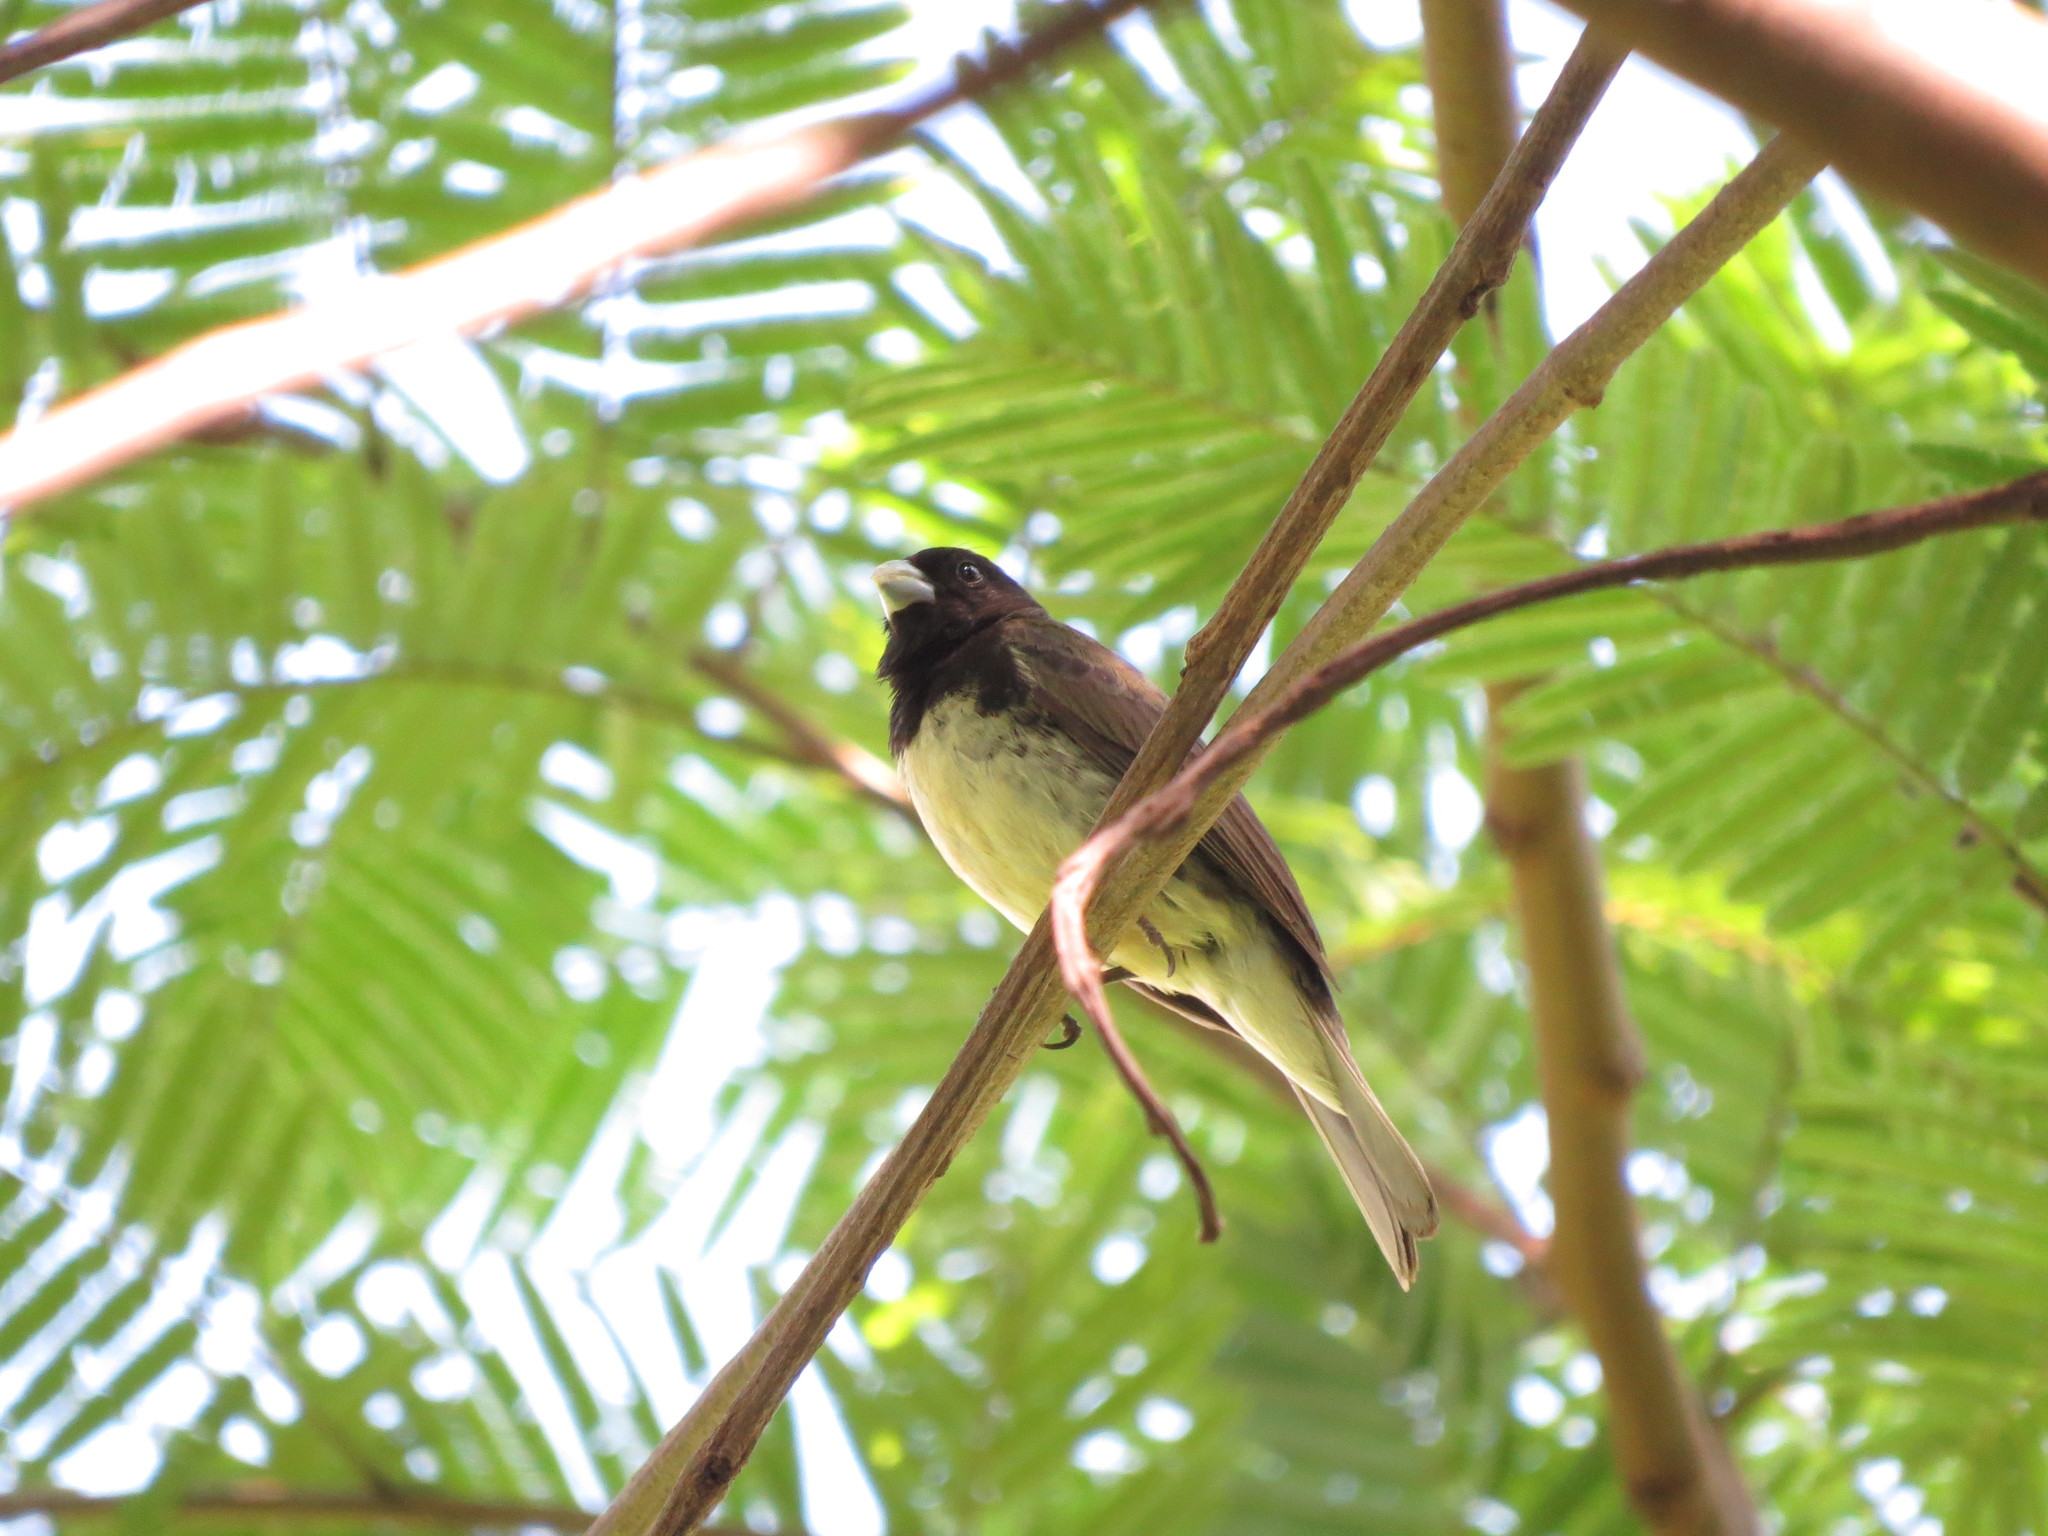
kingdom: Animalia
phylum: Chordata
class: Aves
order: Passeriformes
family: Thraupidae
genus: Sporophila
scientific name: Sporophila nigricollis
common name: Yellow-bellied seedeater
